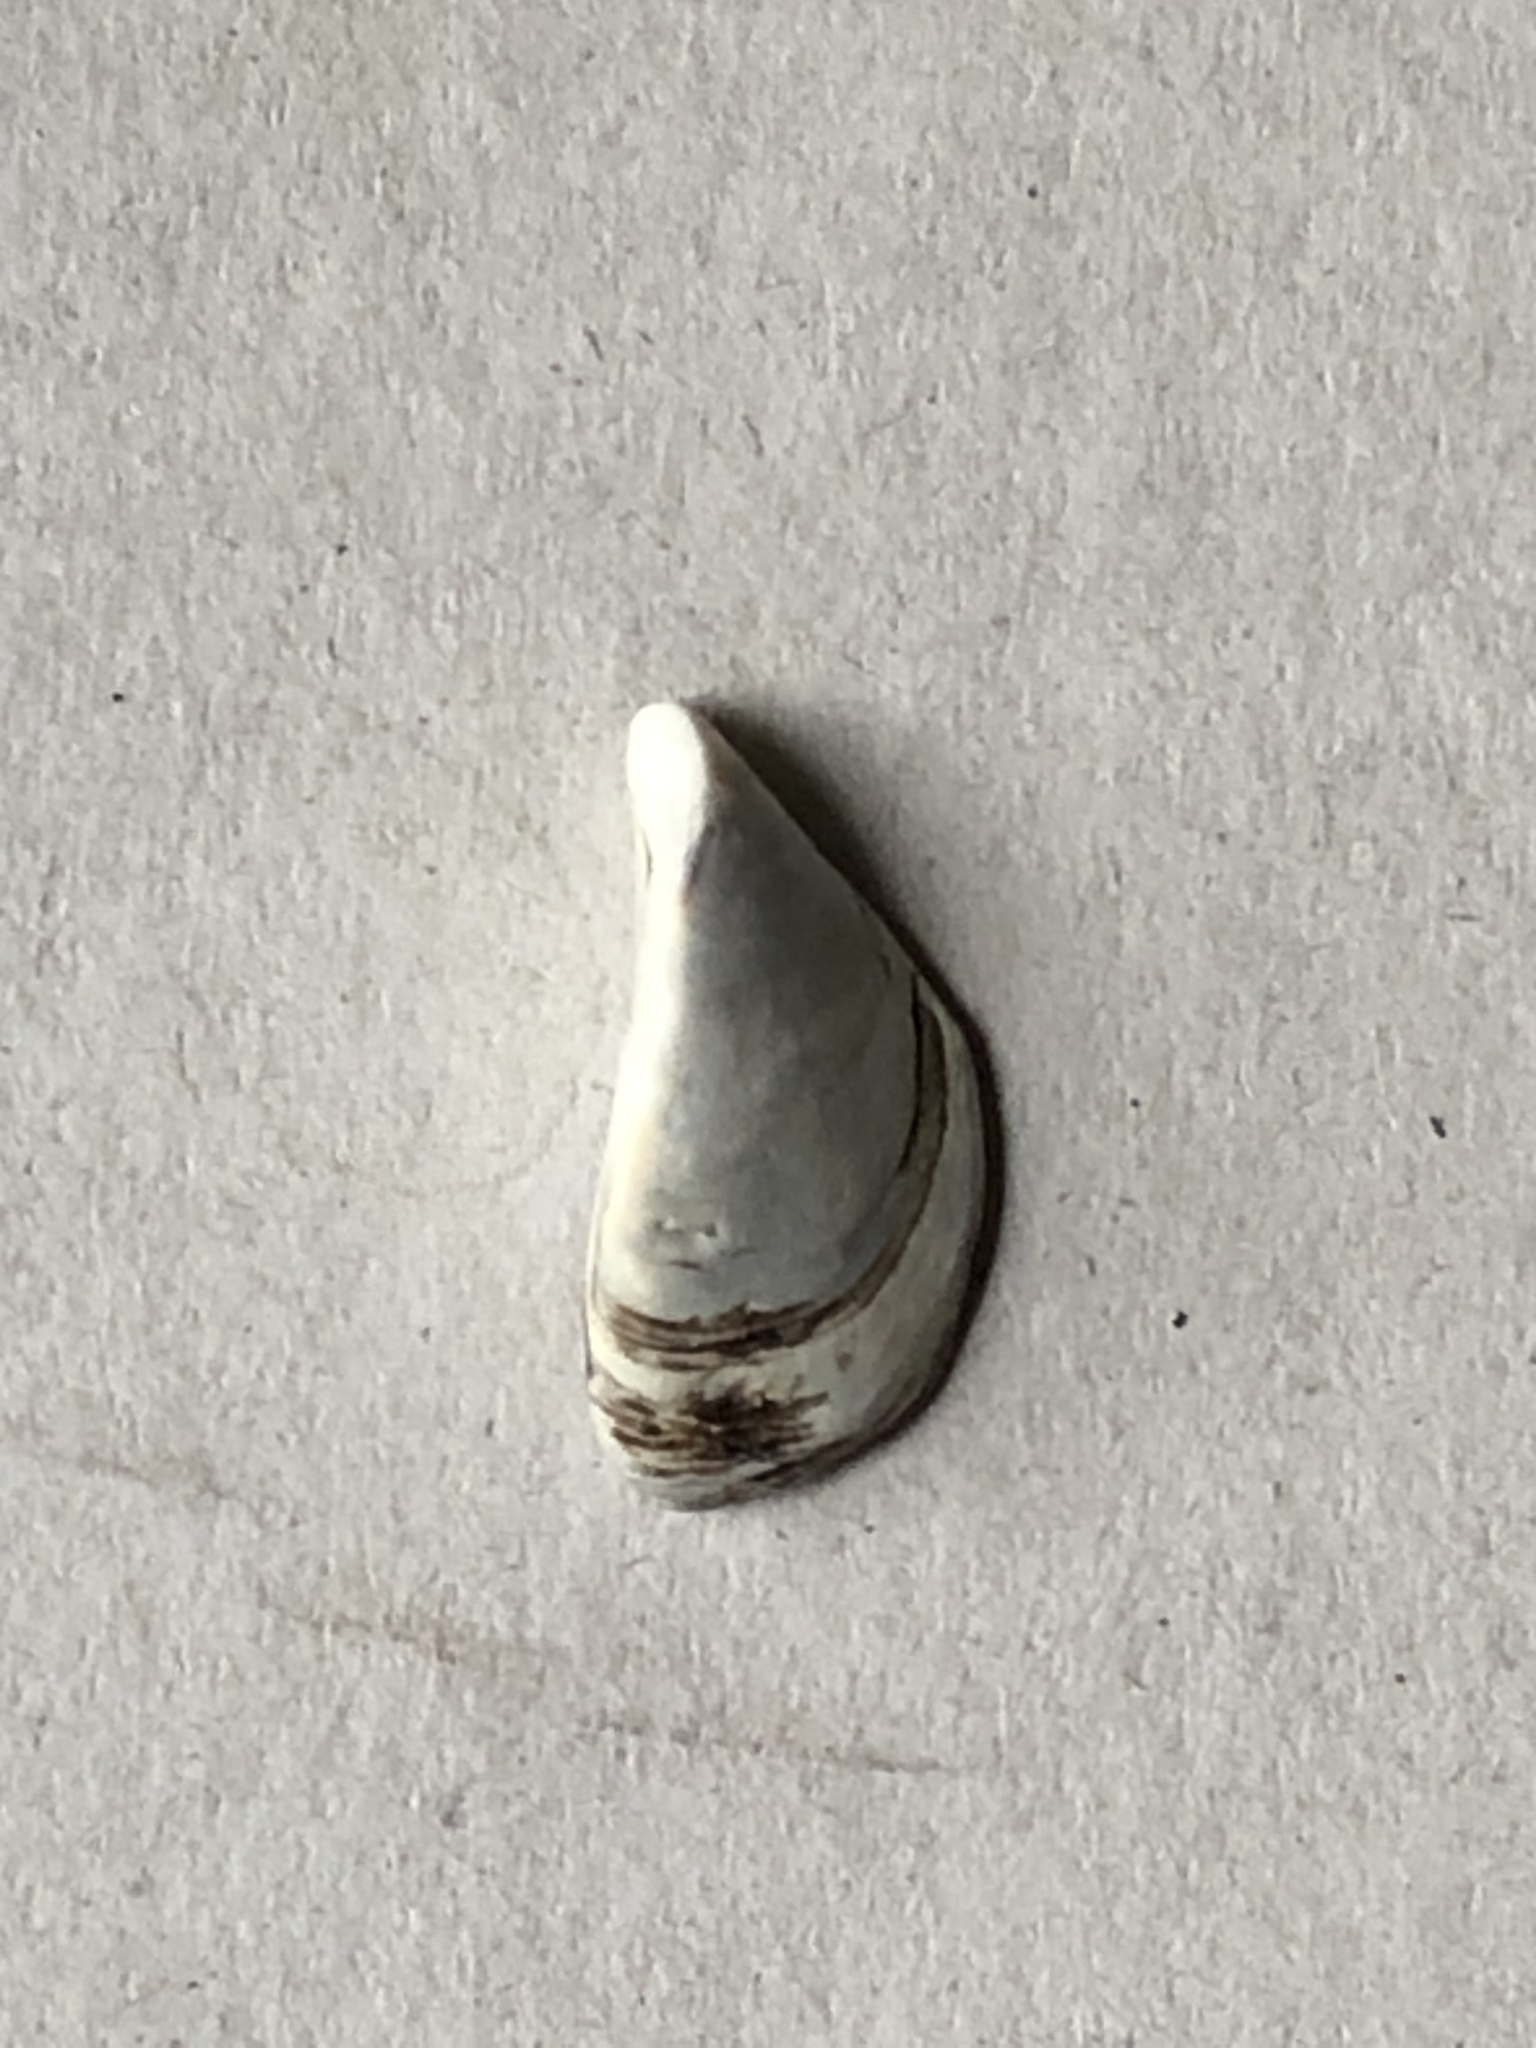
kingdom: Animalia
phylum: Mollusca
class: Bivalvia
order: Myida
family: Dreissenidae
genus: Dreissena
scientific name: Dreissena polymorpha
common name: Zebra mussel
